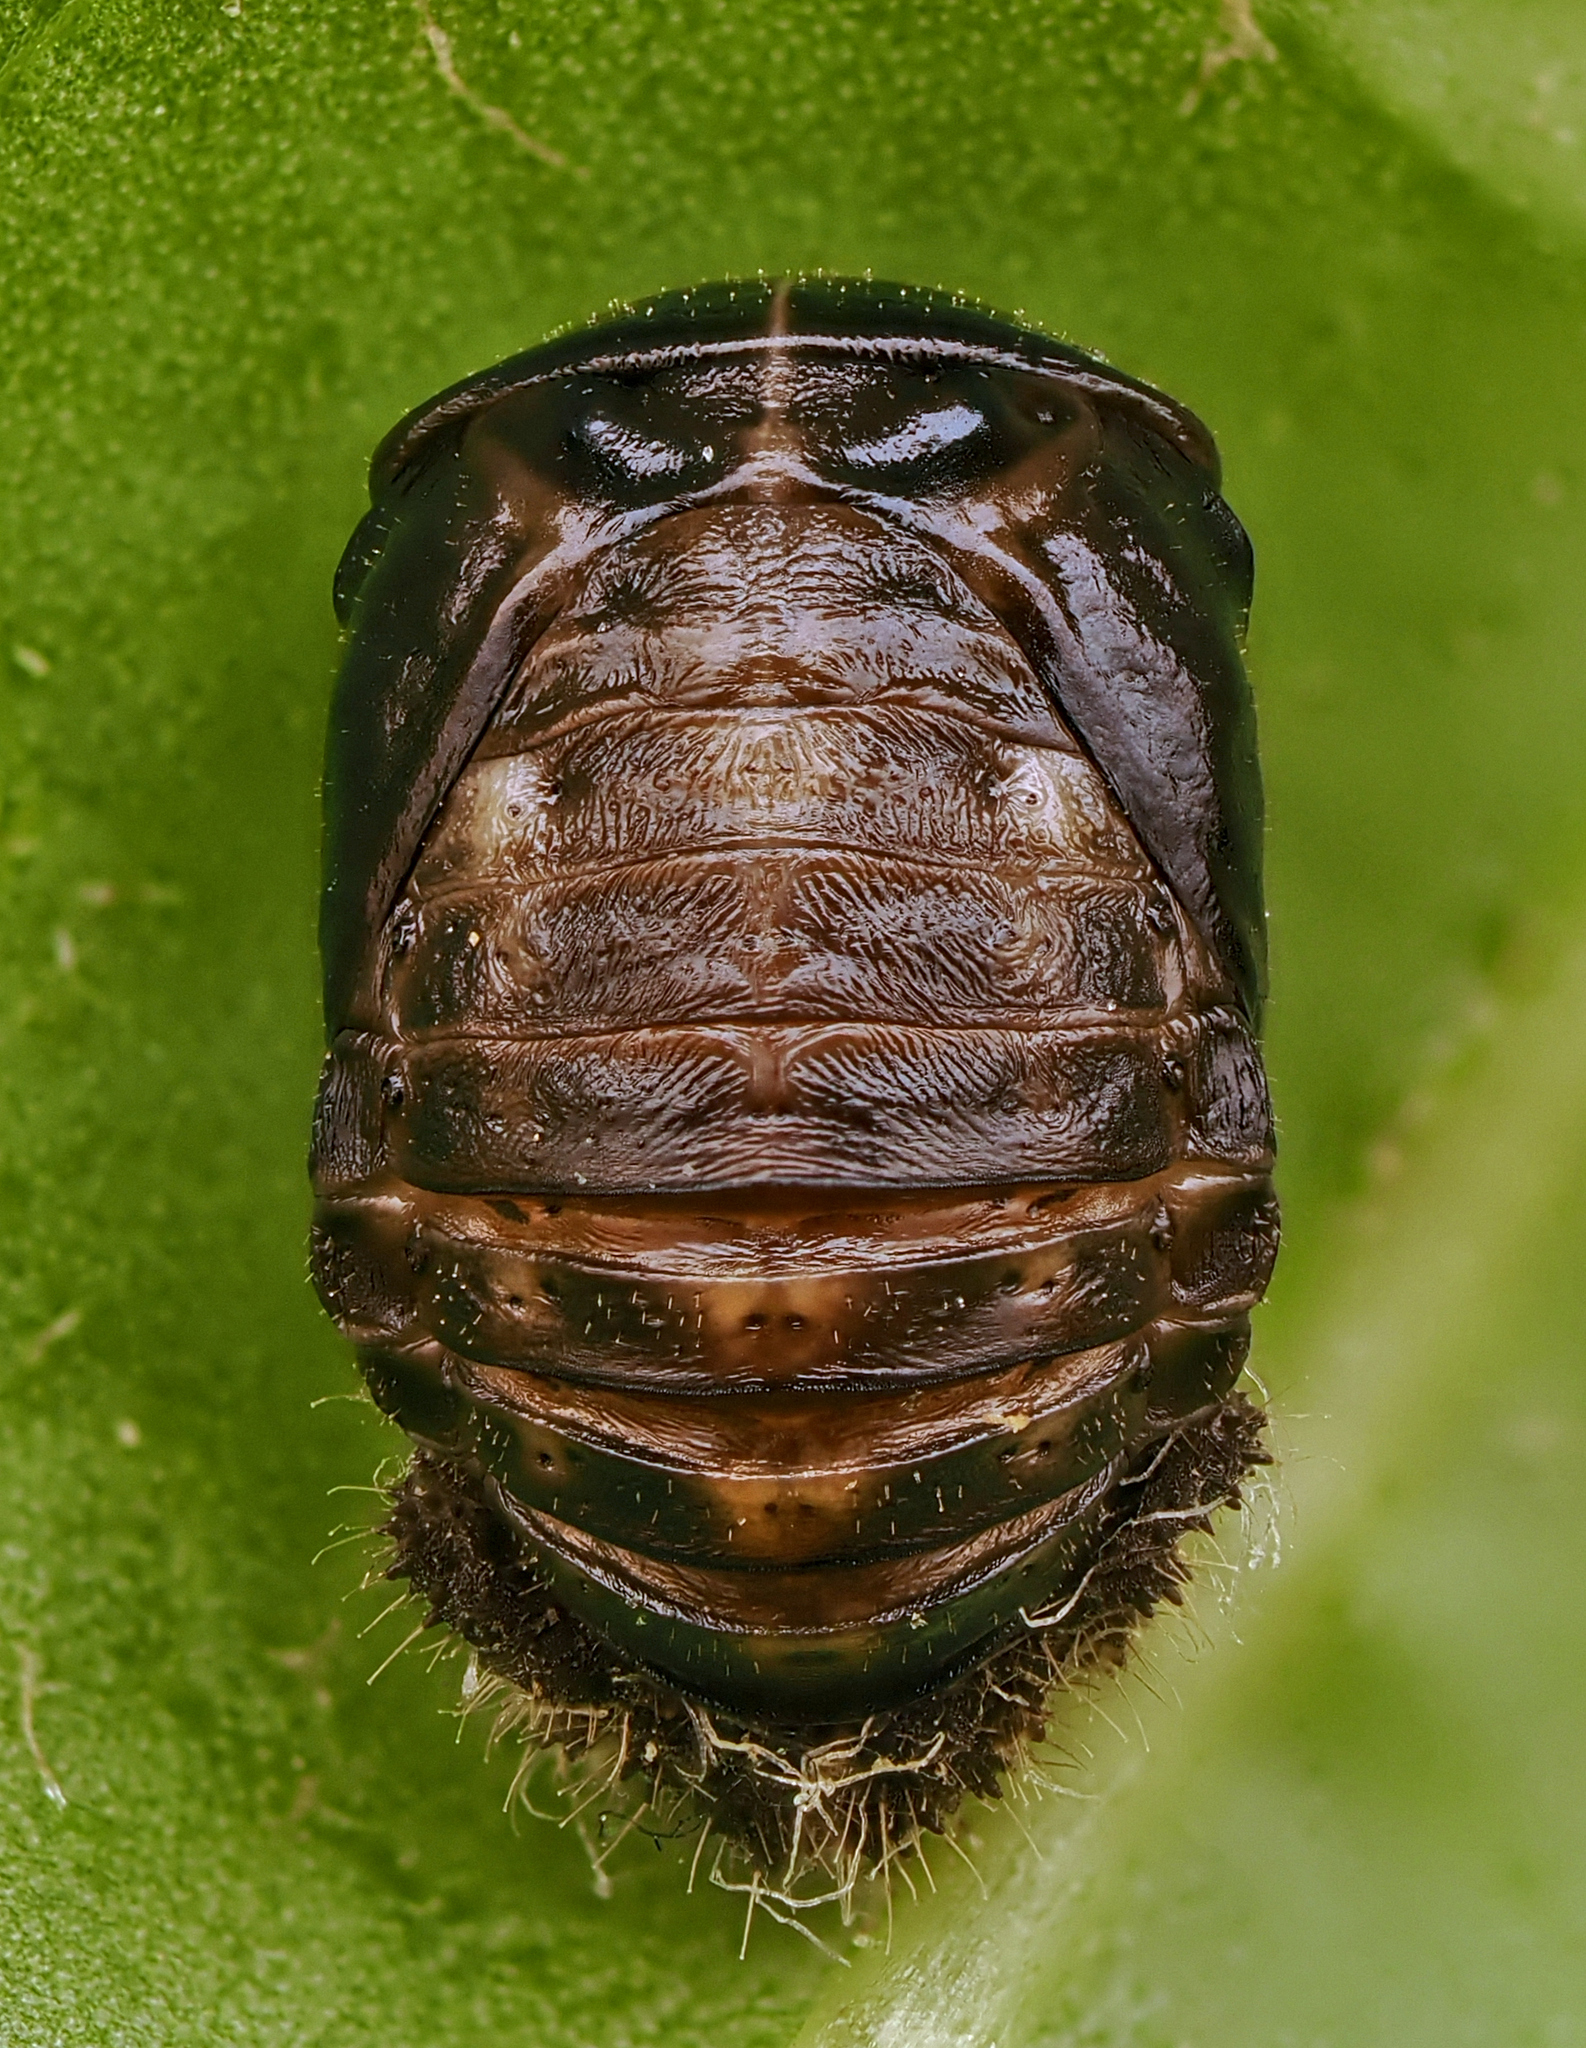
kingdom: Animalia
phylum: Arthropoda
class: Insecta
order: Coleoptera
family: Coccinellidae
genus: Ceratomegilla
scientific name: Ceratomegilla Semiadalia rufocincta
